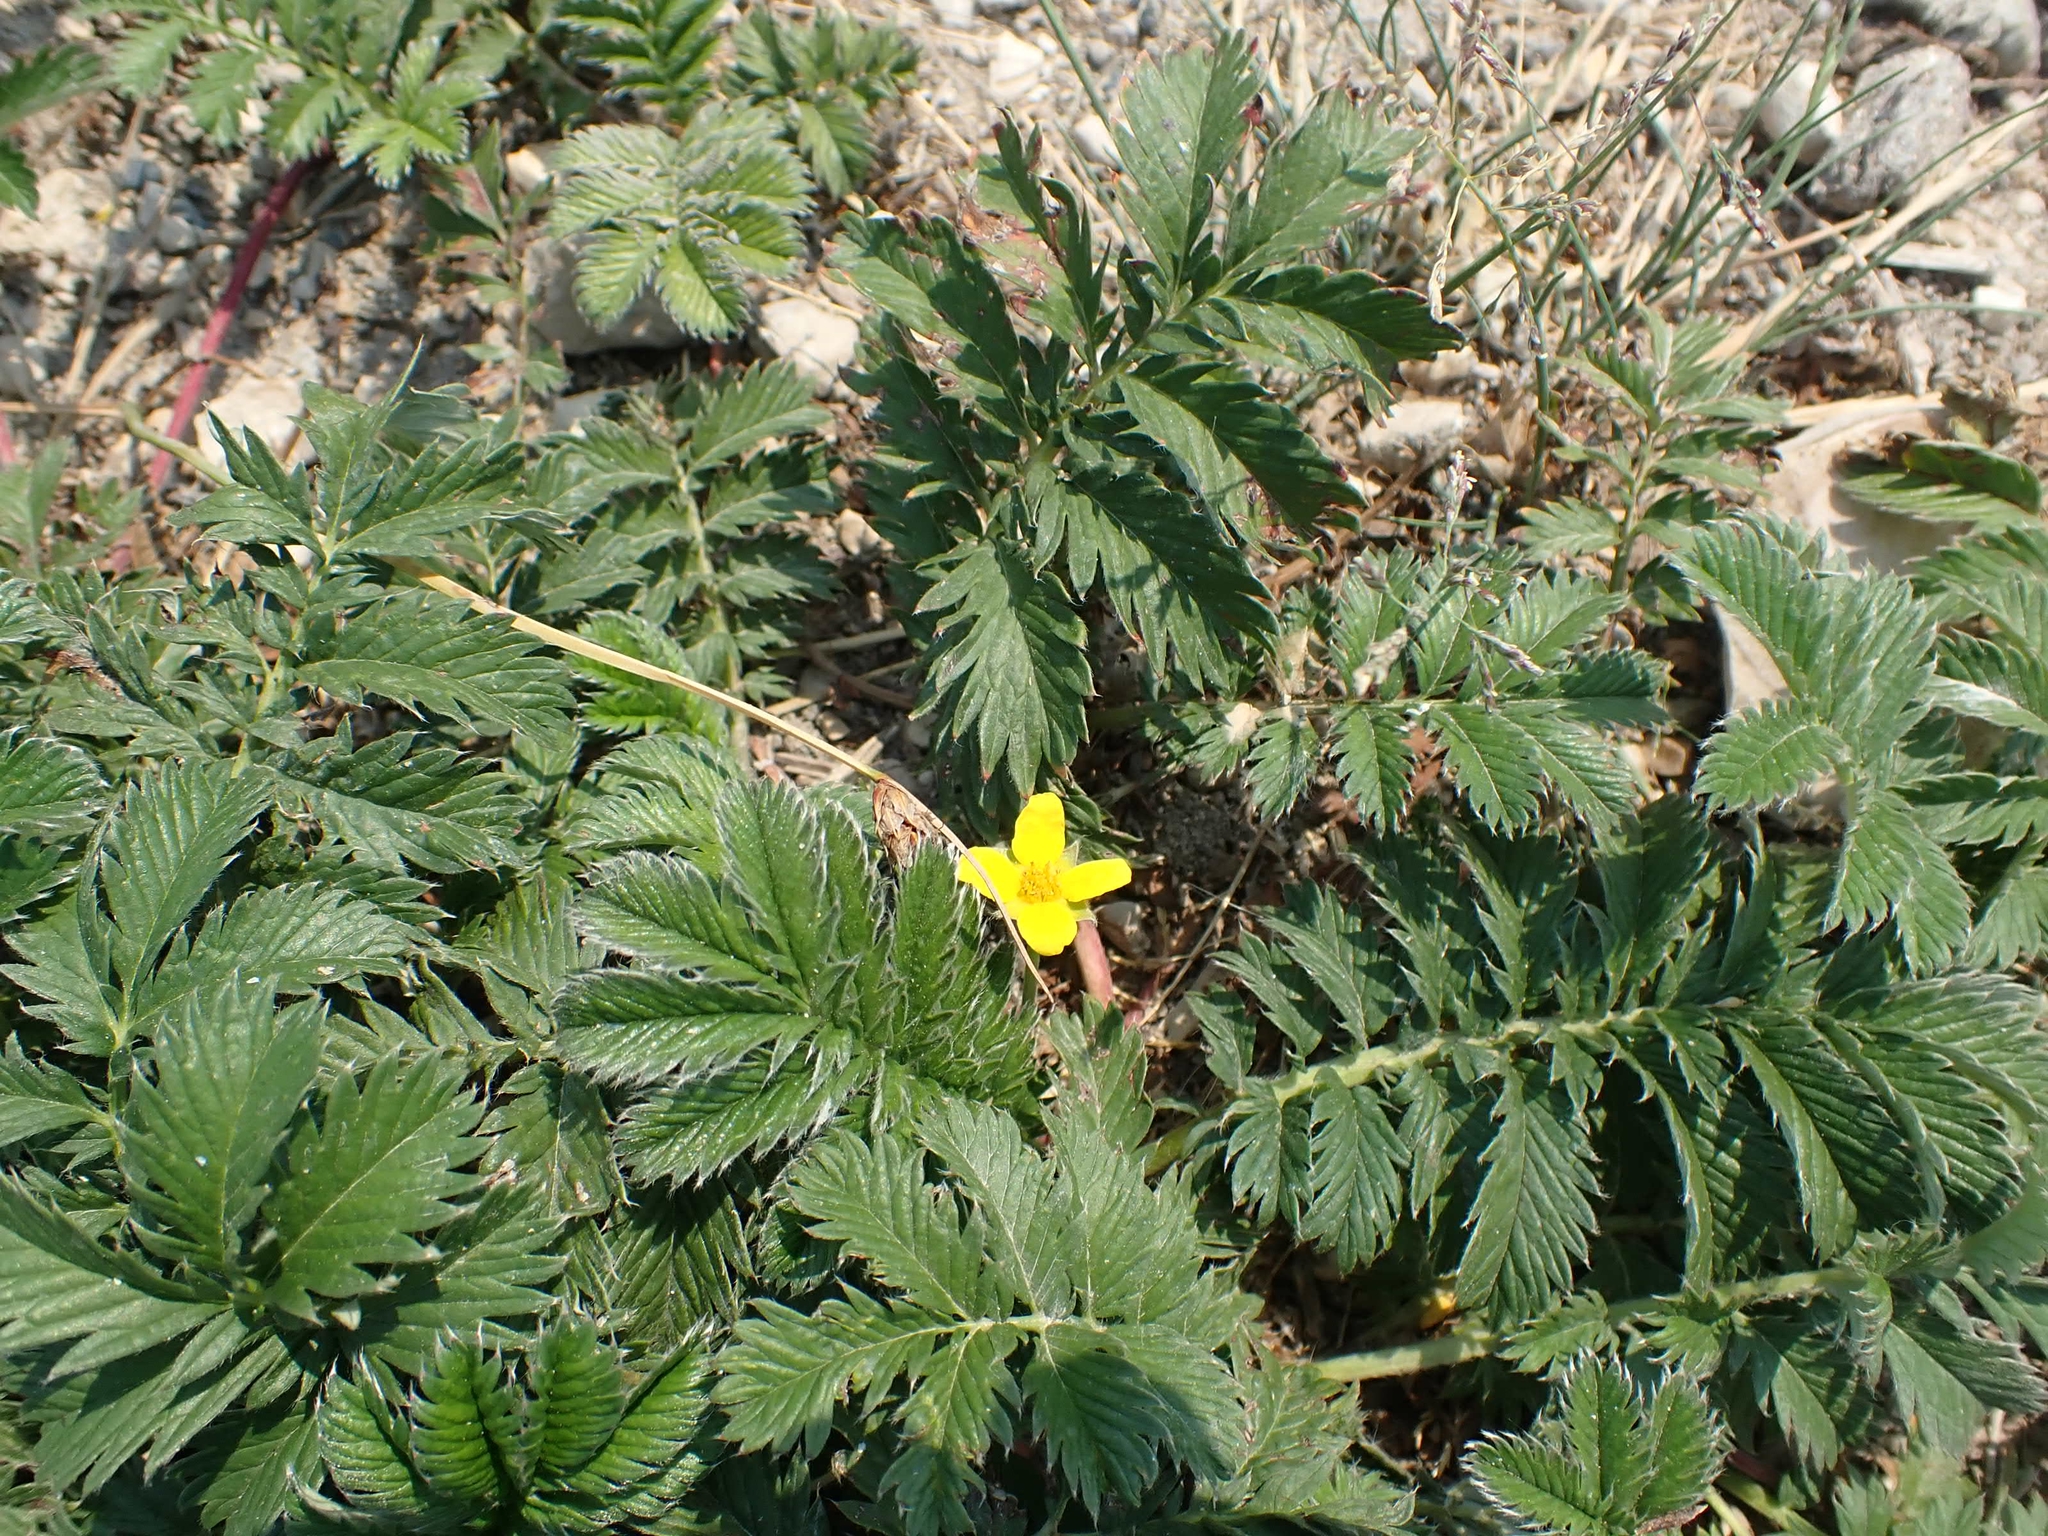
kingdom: Plantae
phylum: Tracheophyta
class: Magnoliopsida
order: Rosales
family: Rosaceae
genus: Argentina
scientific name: Argentina anserina
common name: Common silverweed
